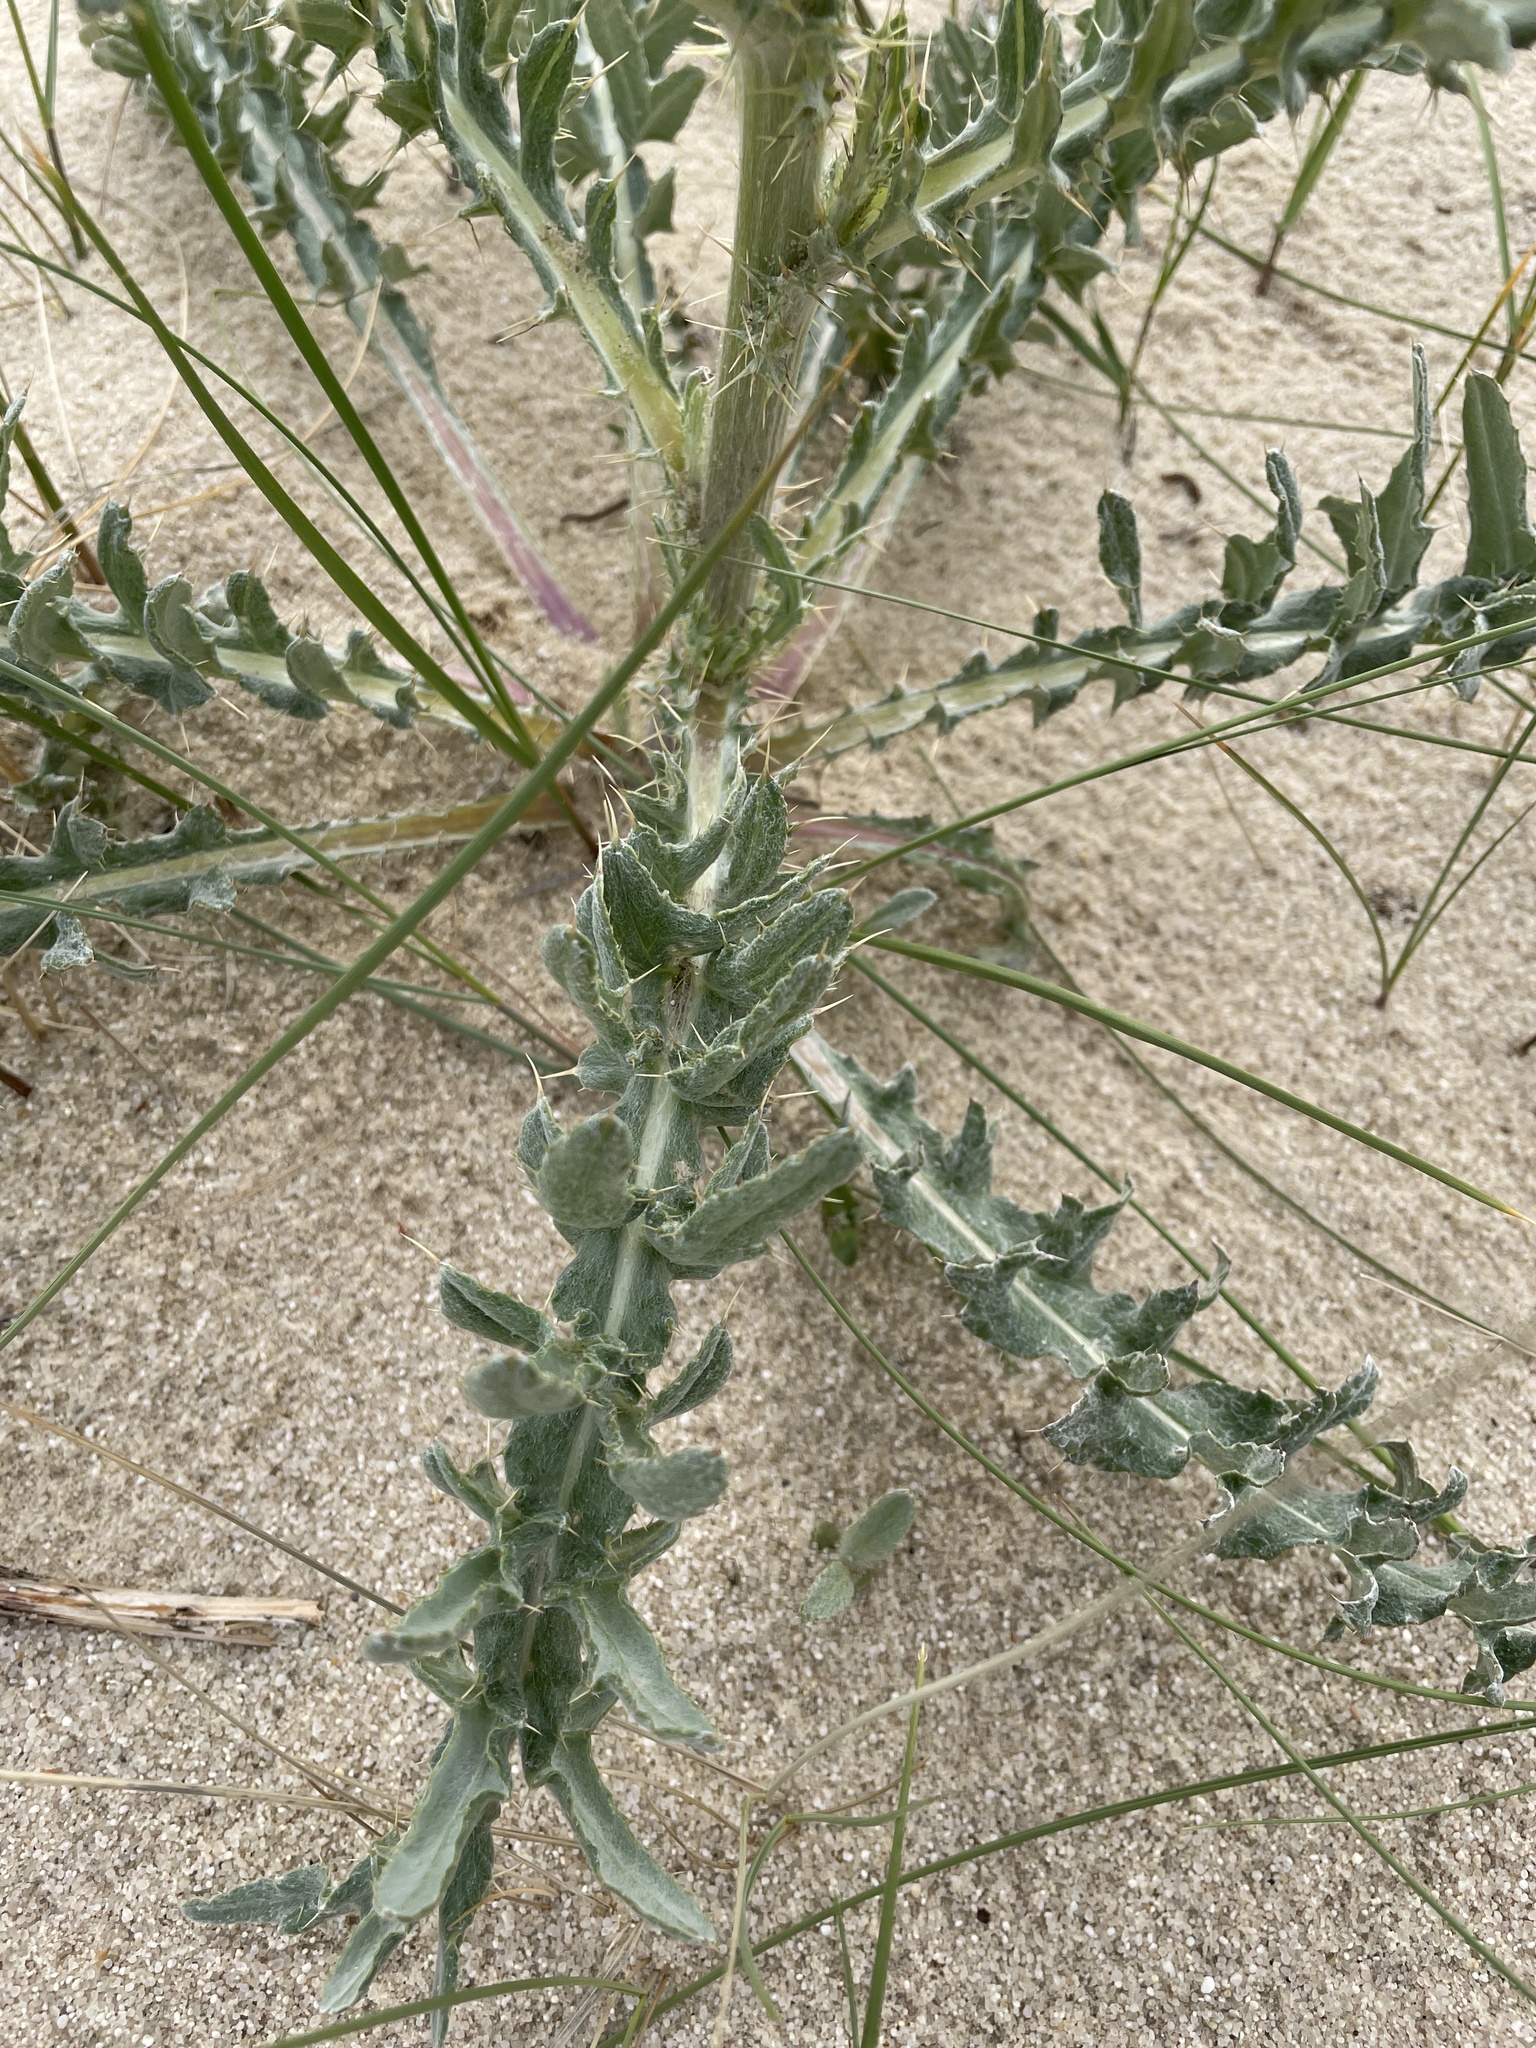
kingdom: Plantae
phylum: Tracheophyta
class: Magnoliopsida
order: Asterales
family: Asteraceae
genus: Cirsium
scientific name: Cirsium canescens
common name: Prairie thistle
